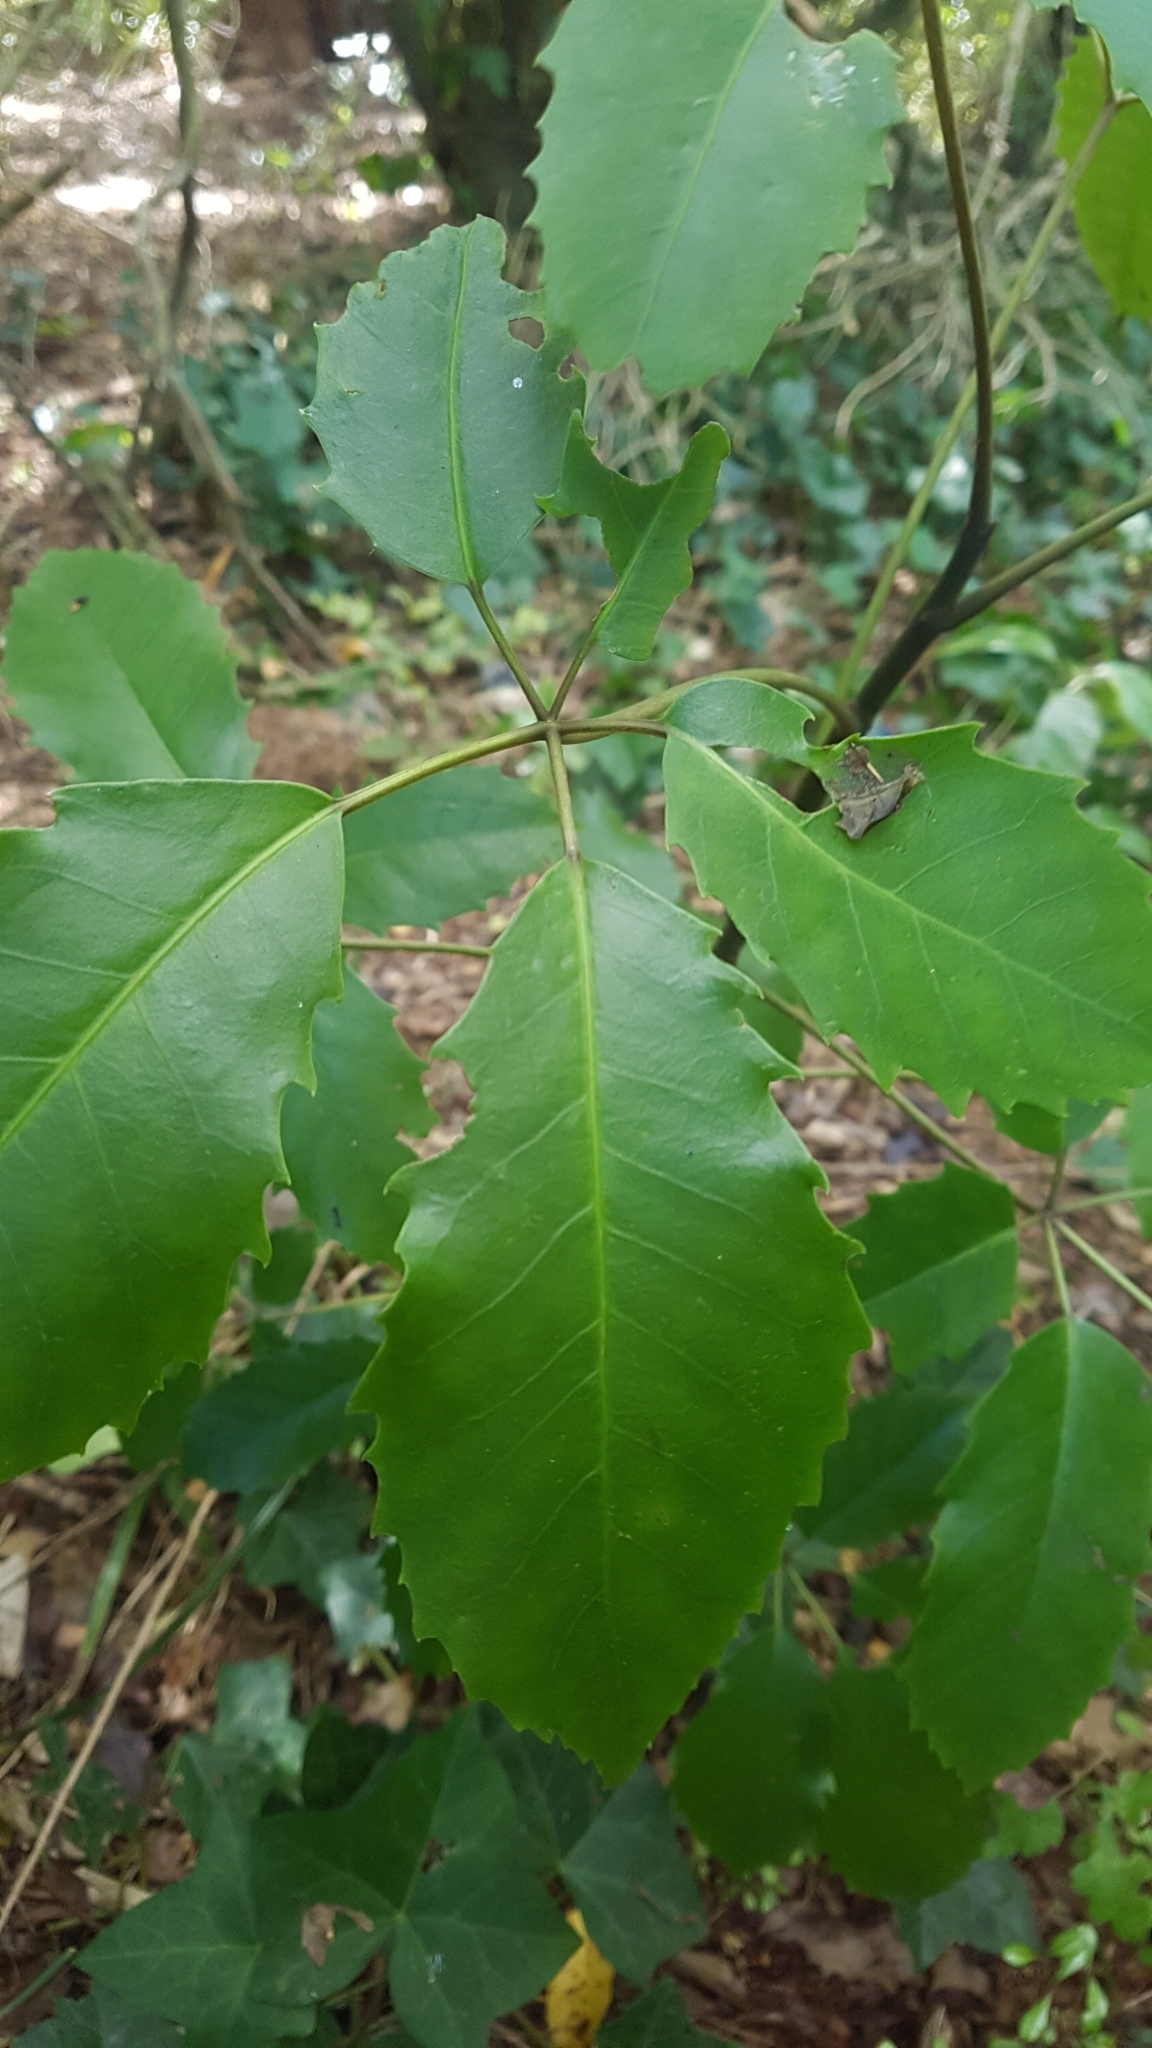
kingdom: Plantae
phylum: Tracheophyta
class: Magnoliopsida
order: Apiales
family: Araliaceae
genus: Neopanax
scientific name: Neopanax arboreus
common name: Five-fingers
